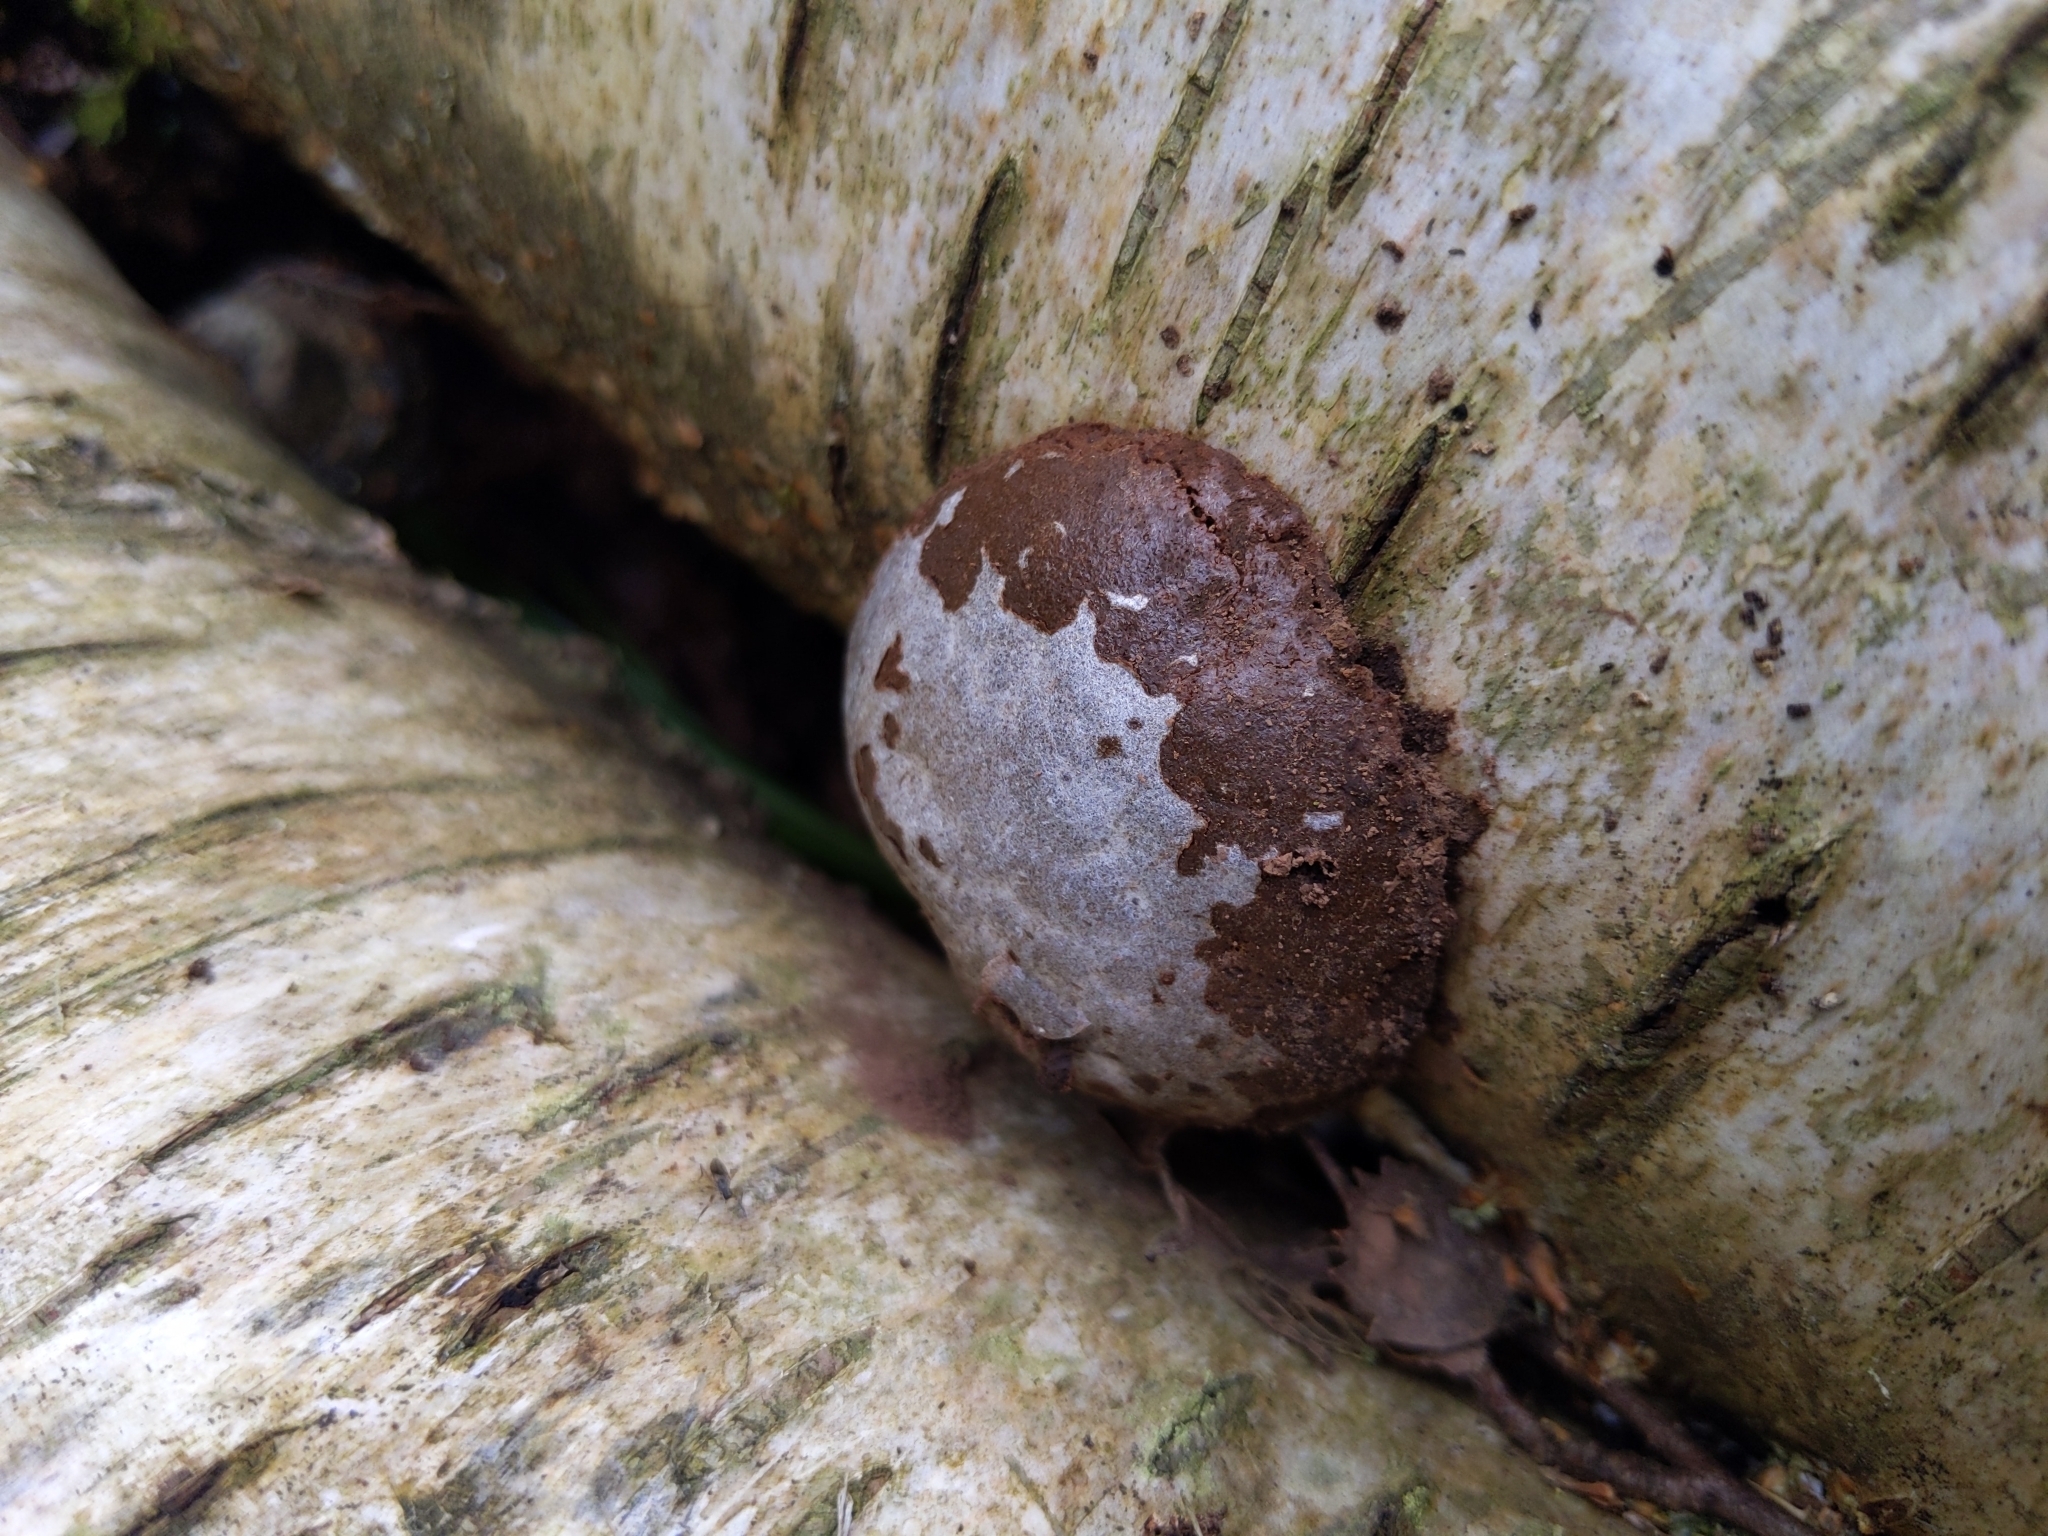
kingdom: Protozoa
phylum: Mycetozoa
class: Myxomycetes
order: Cribrariales
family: Tubiferaceae
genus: Reticularia
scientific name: Reticularia lycoperdon
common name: False puffball
